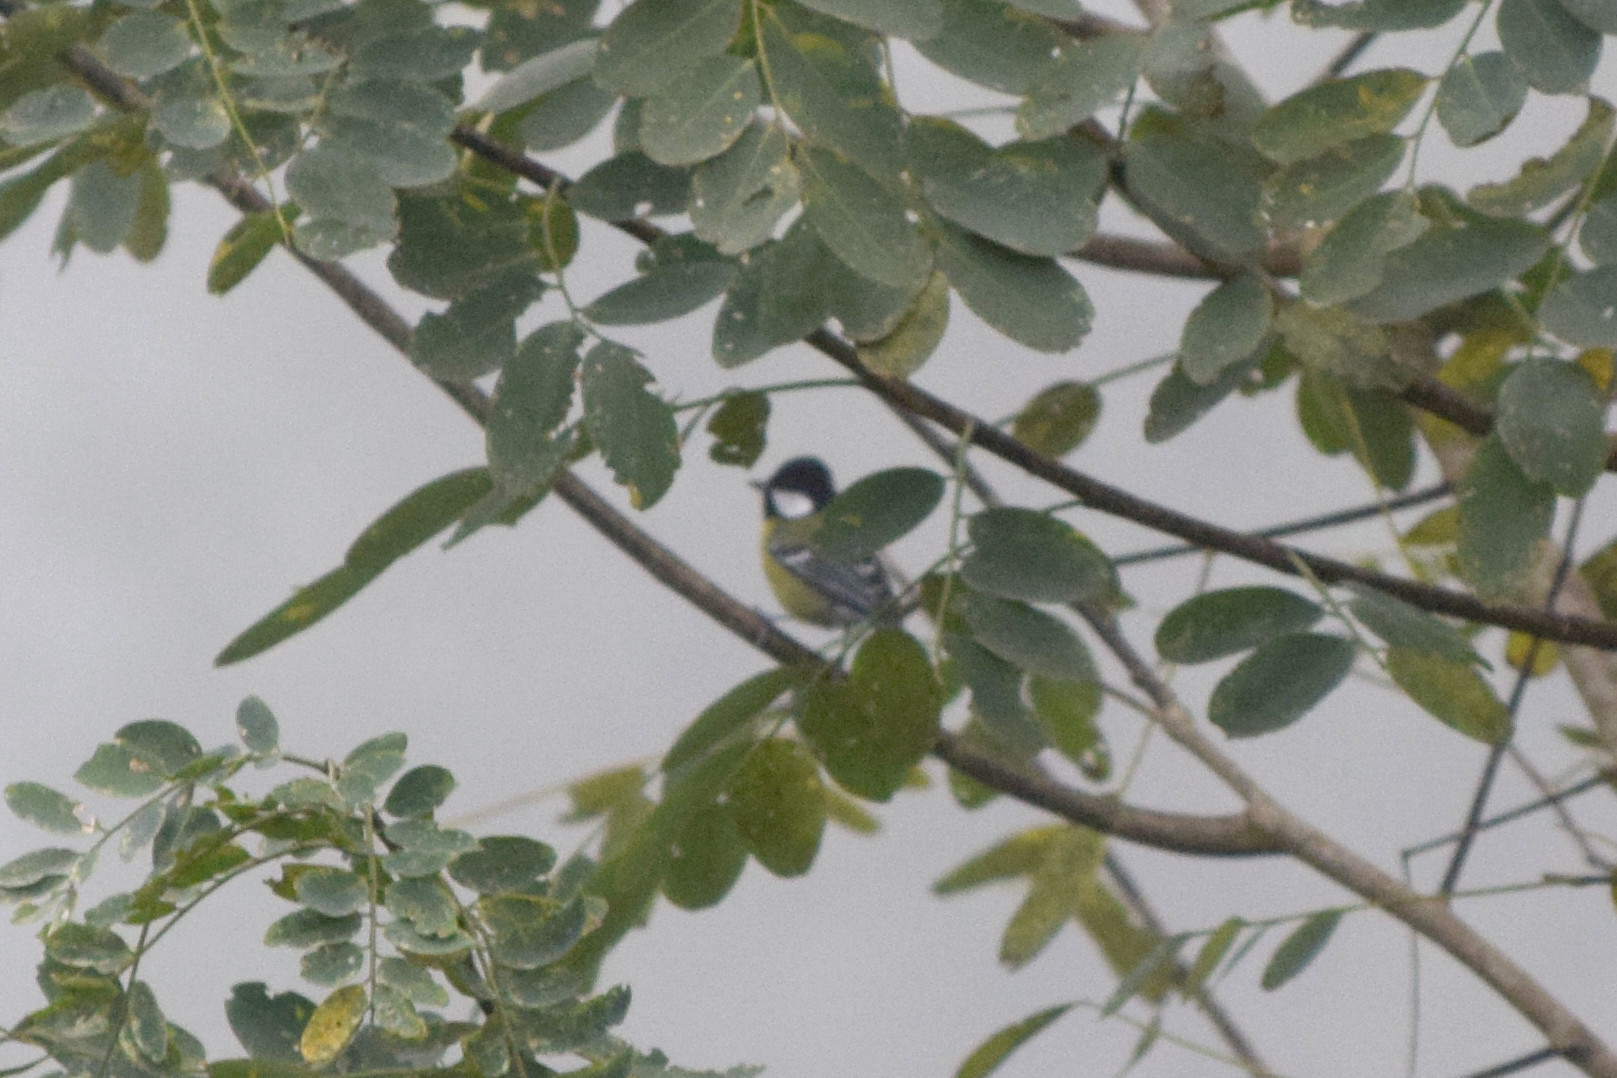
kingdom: Animalia
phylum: Chordata
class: Aves
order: Passeriformes
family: Paridae
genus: Parus
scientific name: Parus monticolus
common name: Green-backed tit
